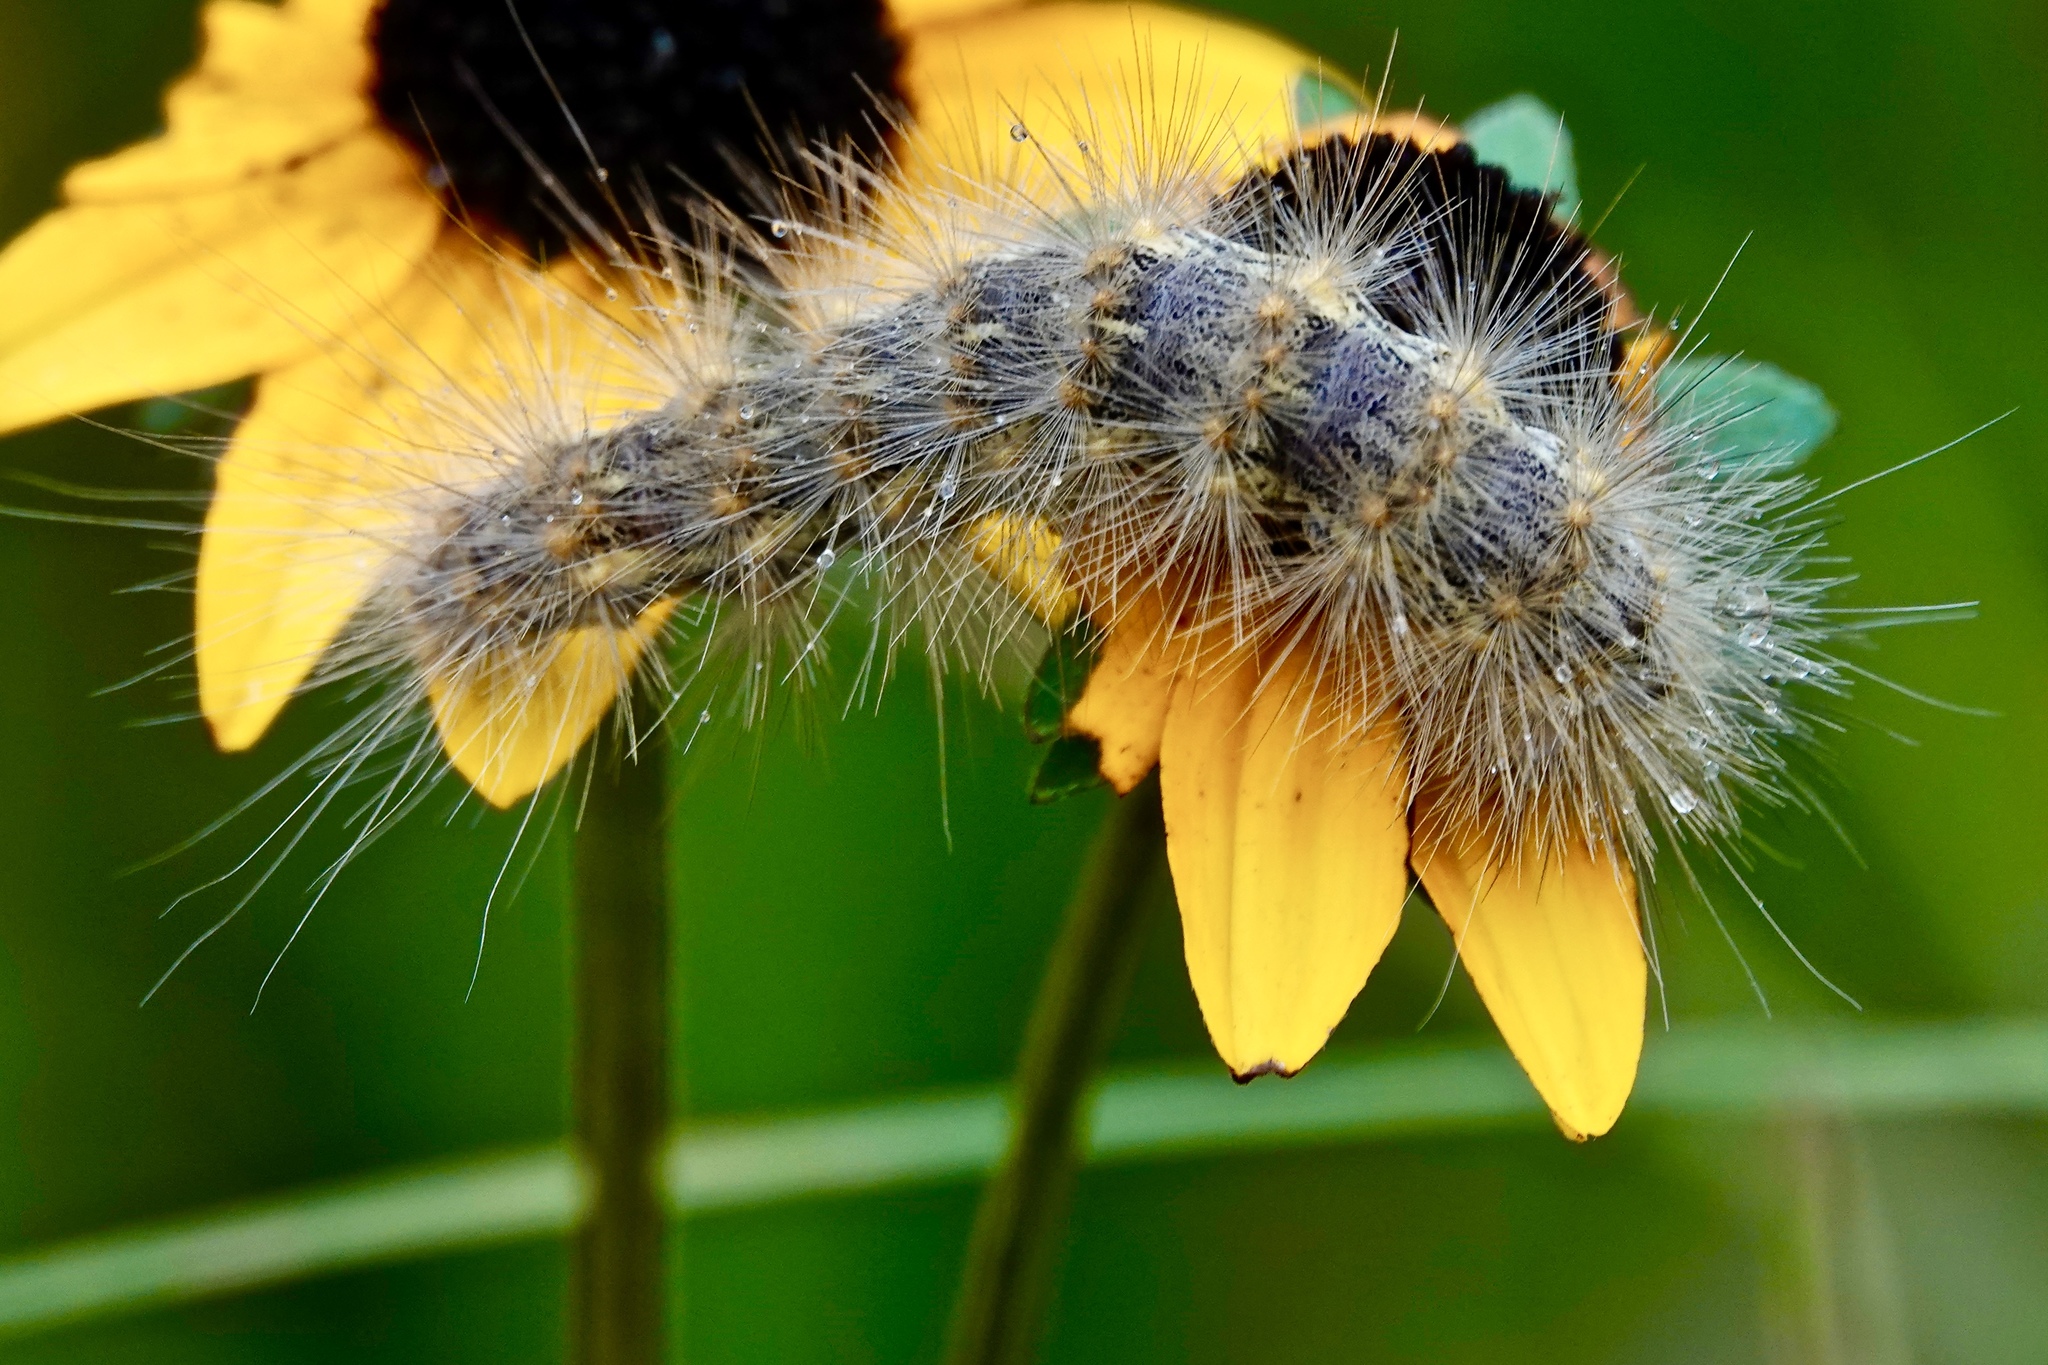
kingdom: Animalia
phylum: Arthropoda
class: Insecta
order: Lepidoptera
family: Erebidae
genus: Estigmene
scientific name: Estigmene acrea
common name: Salt marsh moth
